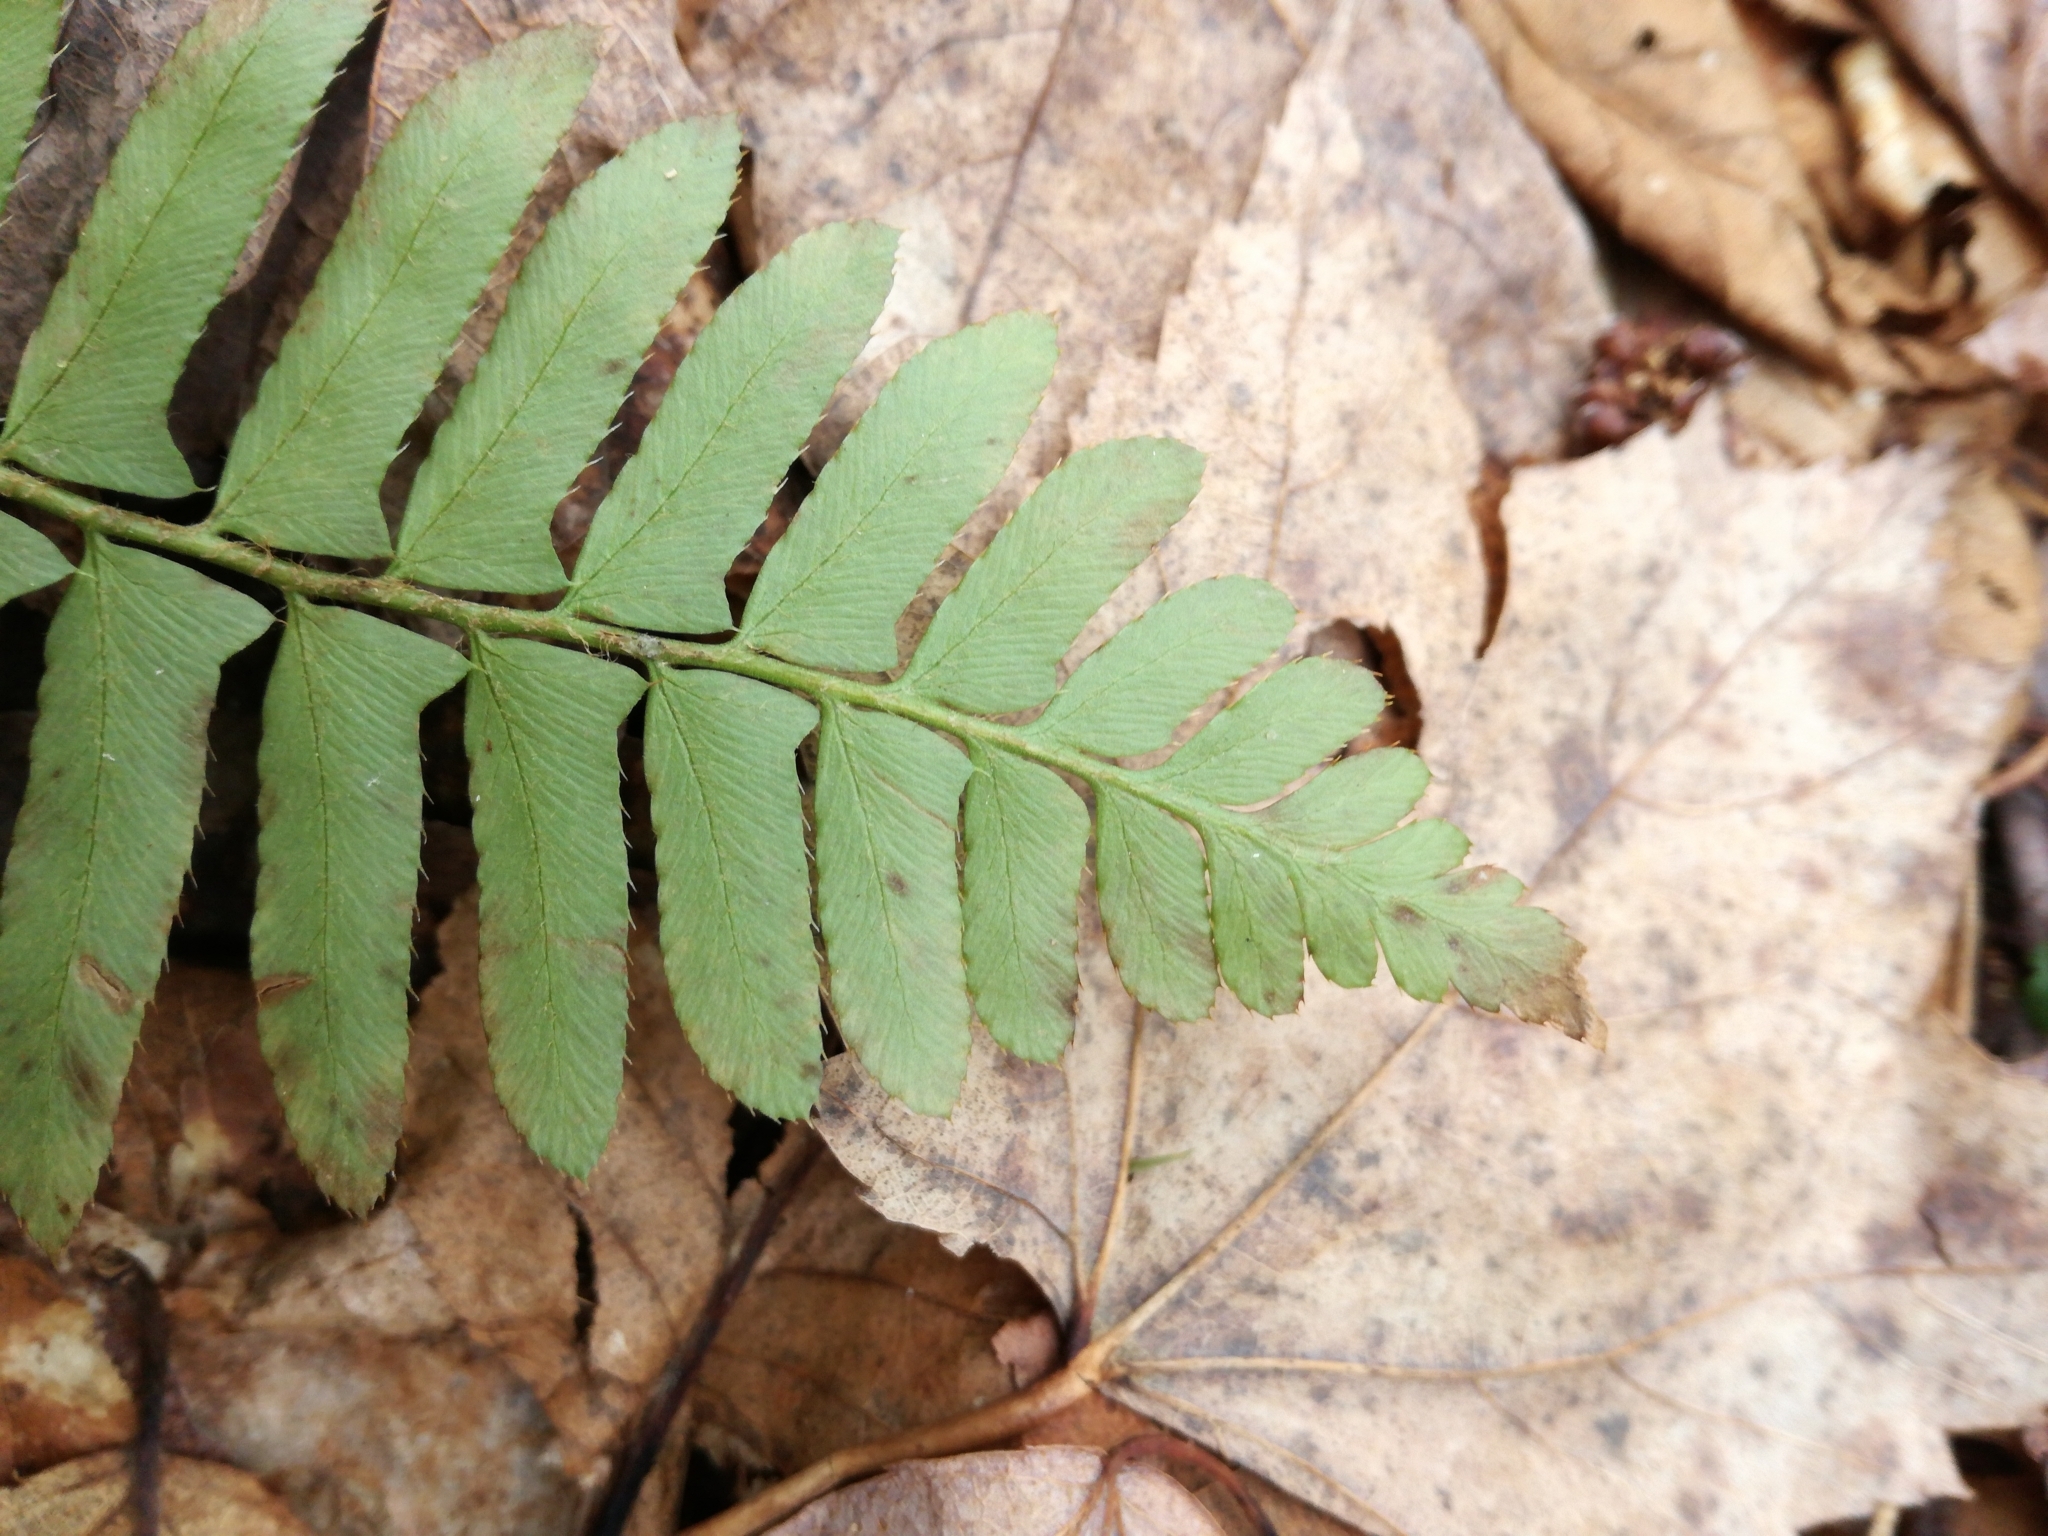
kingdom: Plantae
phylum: Tracheophyta
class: Polypodiopsida
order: Polypodiales
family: Dryopteridaceae
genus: Polystichum
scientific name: Polystichum acrostichoides
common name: Christmas fern
